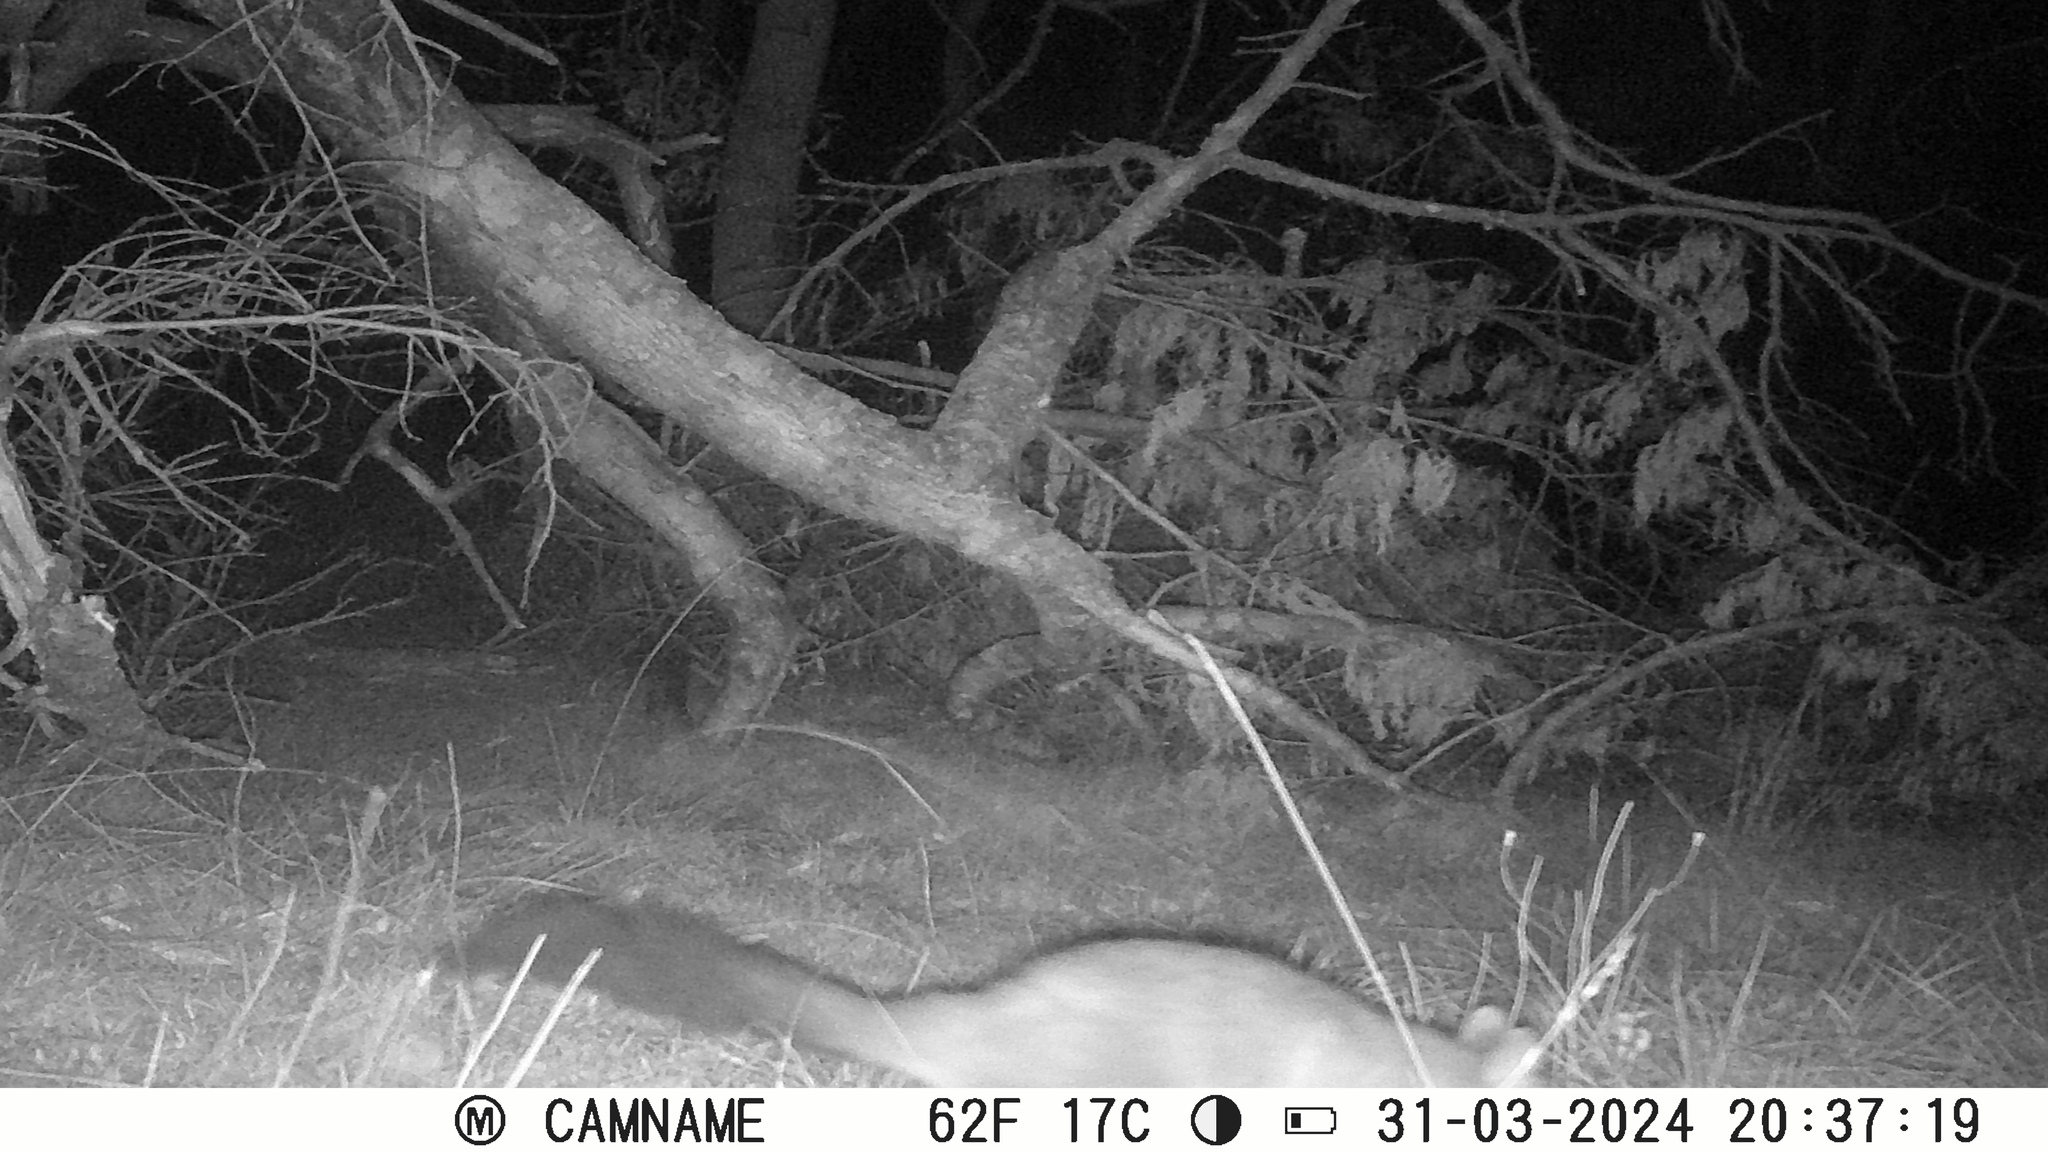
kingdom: Animalia
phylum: Chordata
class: Mammalia
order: Diprotodontia
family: Phalangeridae
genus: Trichosurus
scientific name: Trichosurus vulpecula
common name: Common brushtail
